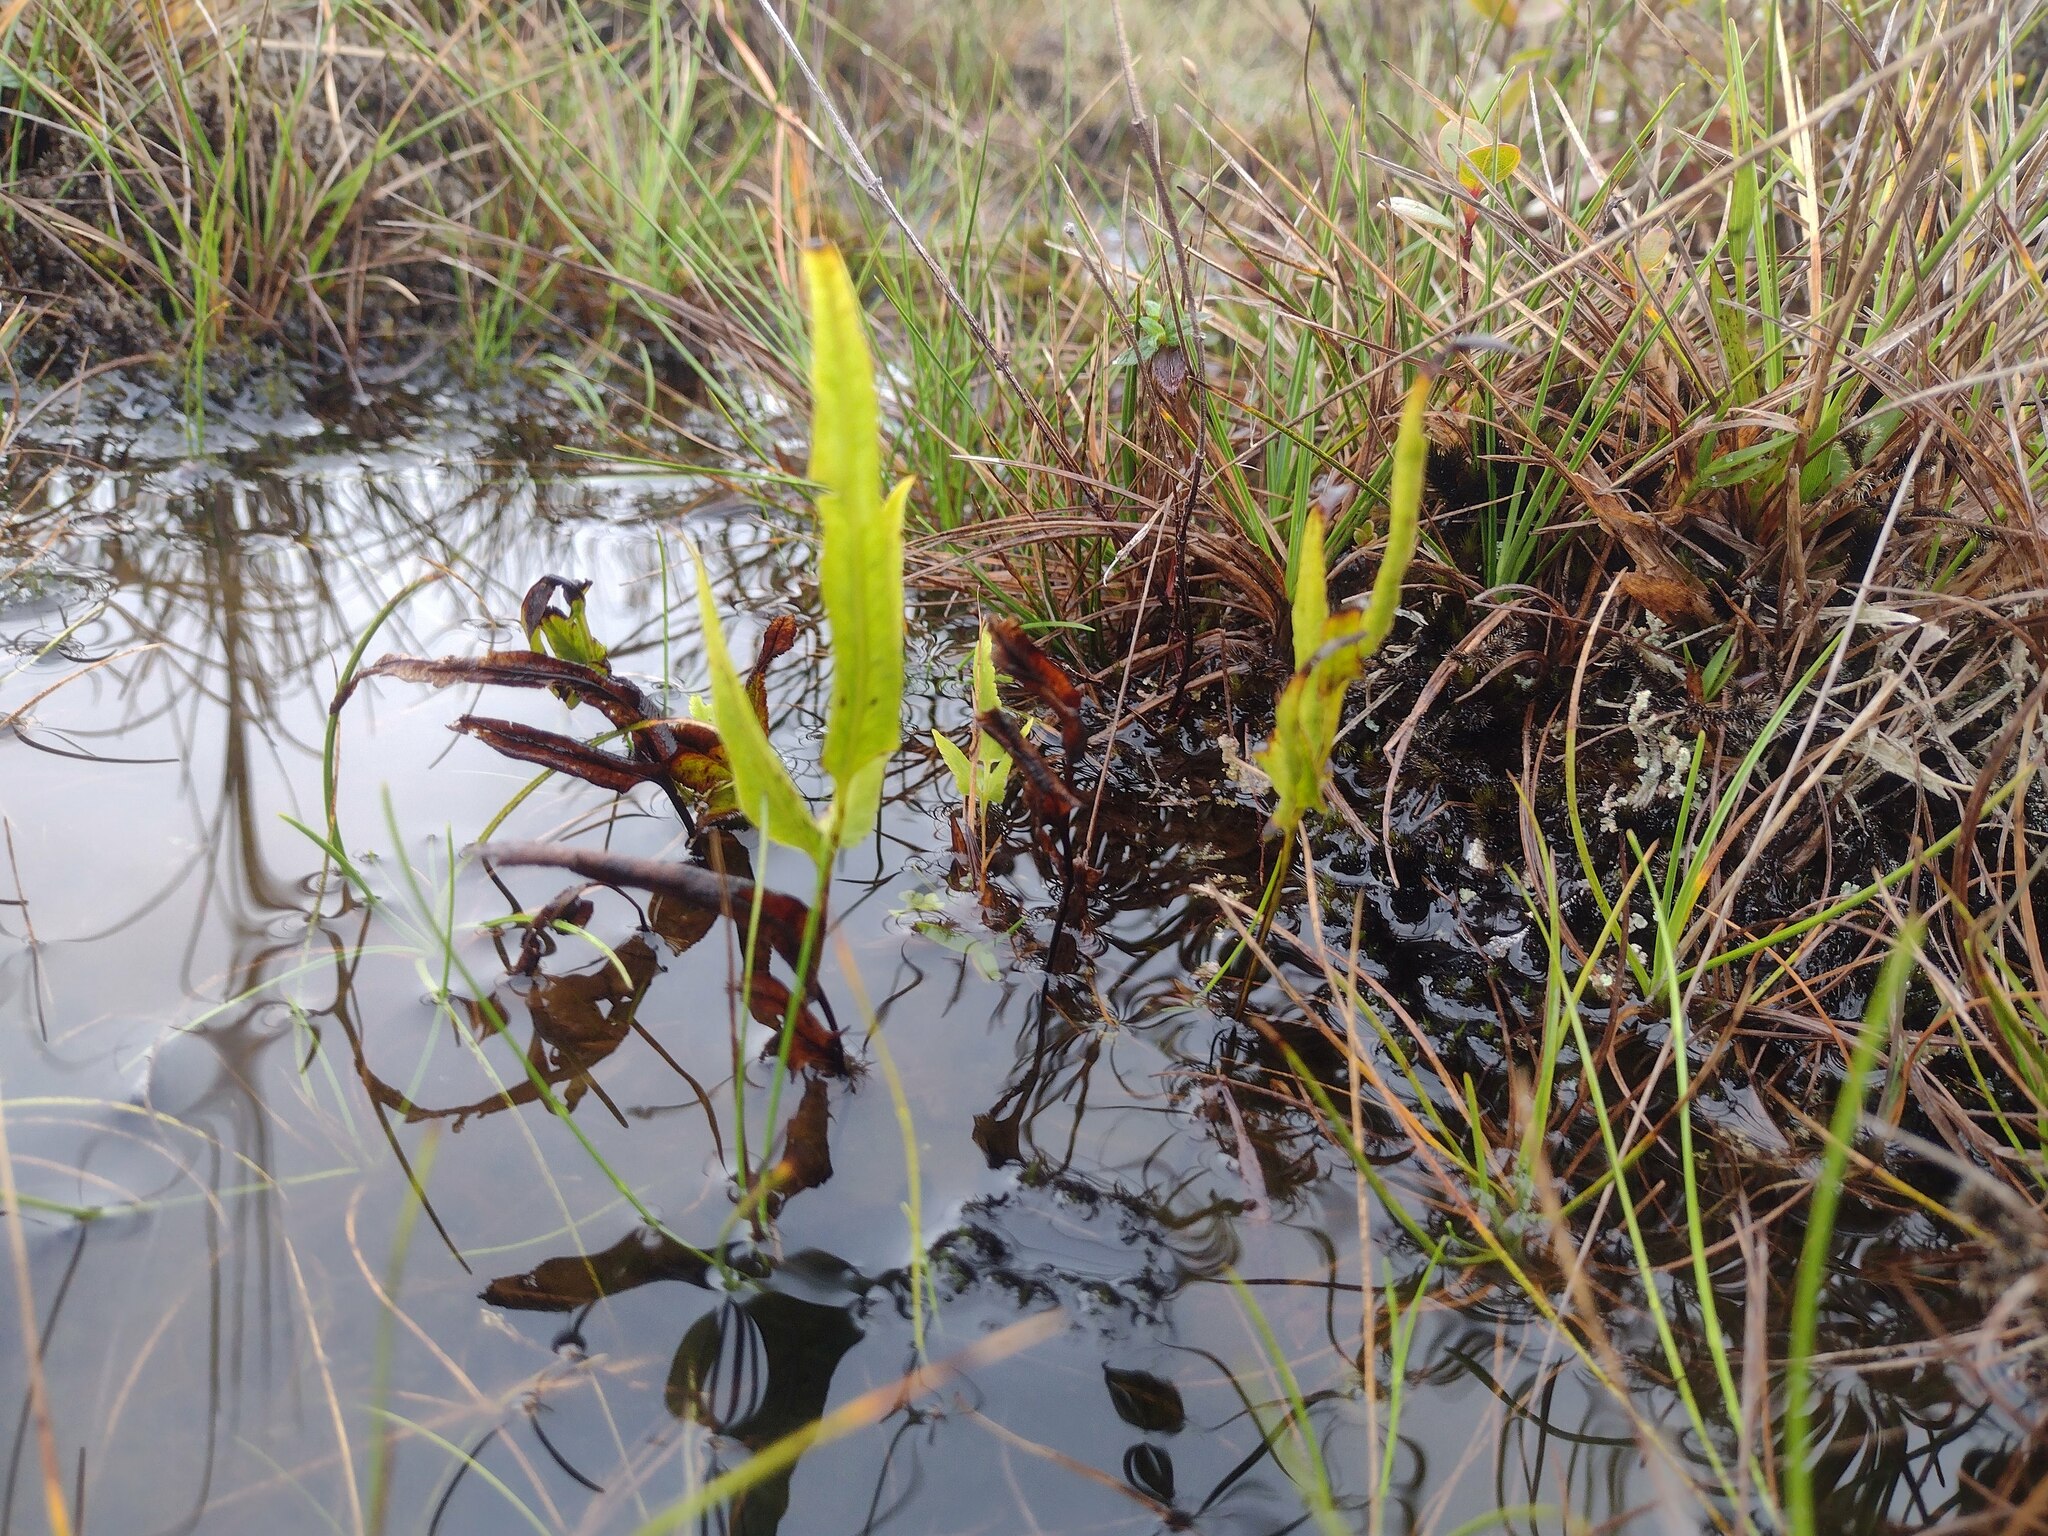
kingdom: Plantae
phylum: Tracheophyta
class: Polypodiopsida
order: Polypodiales
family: Lindsaeaceae
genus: Lindsaea
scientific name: Lindsaea ensifolia
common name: Graceful necklace fern
